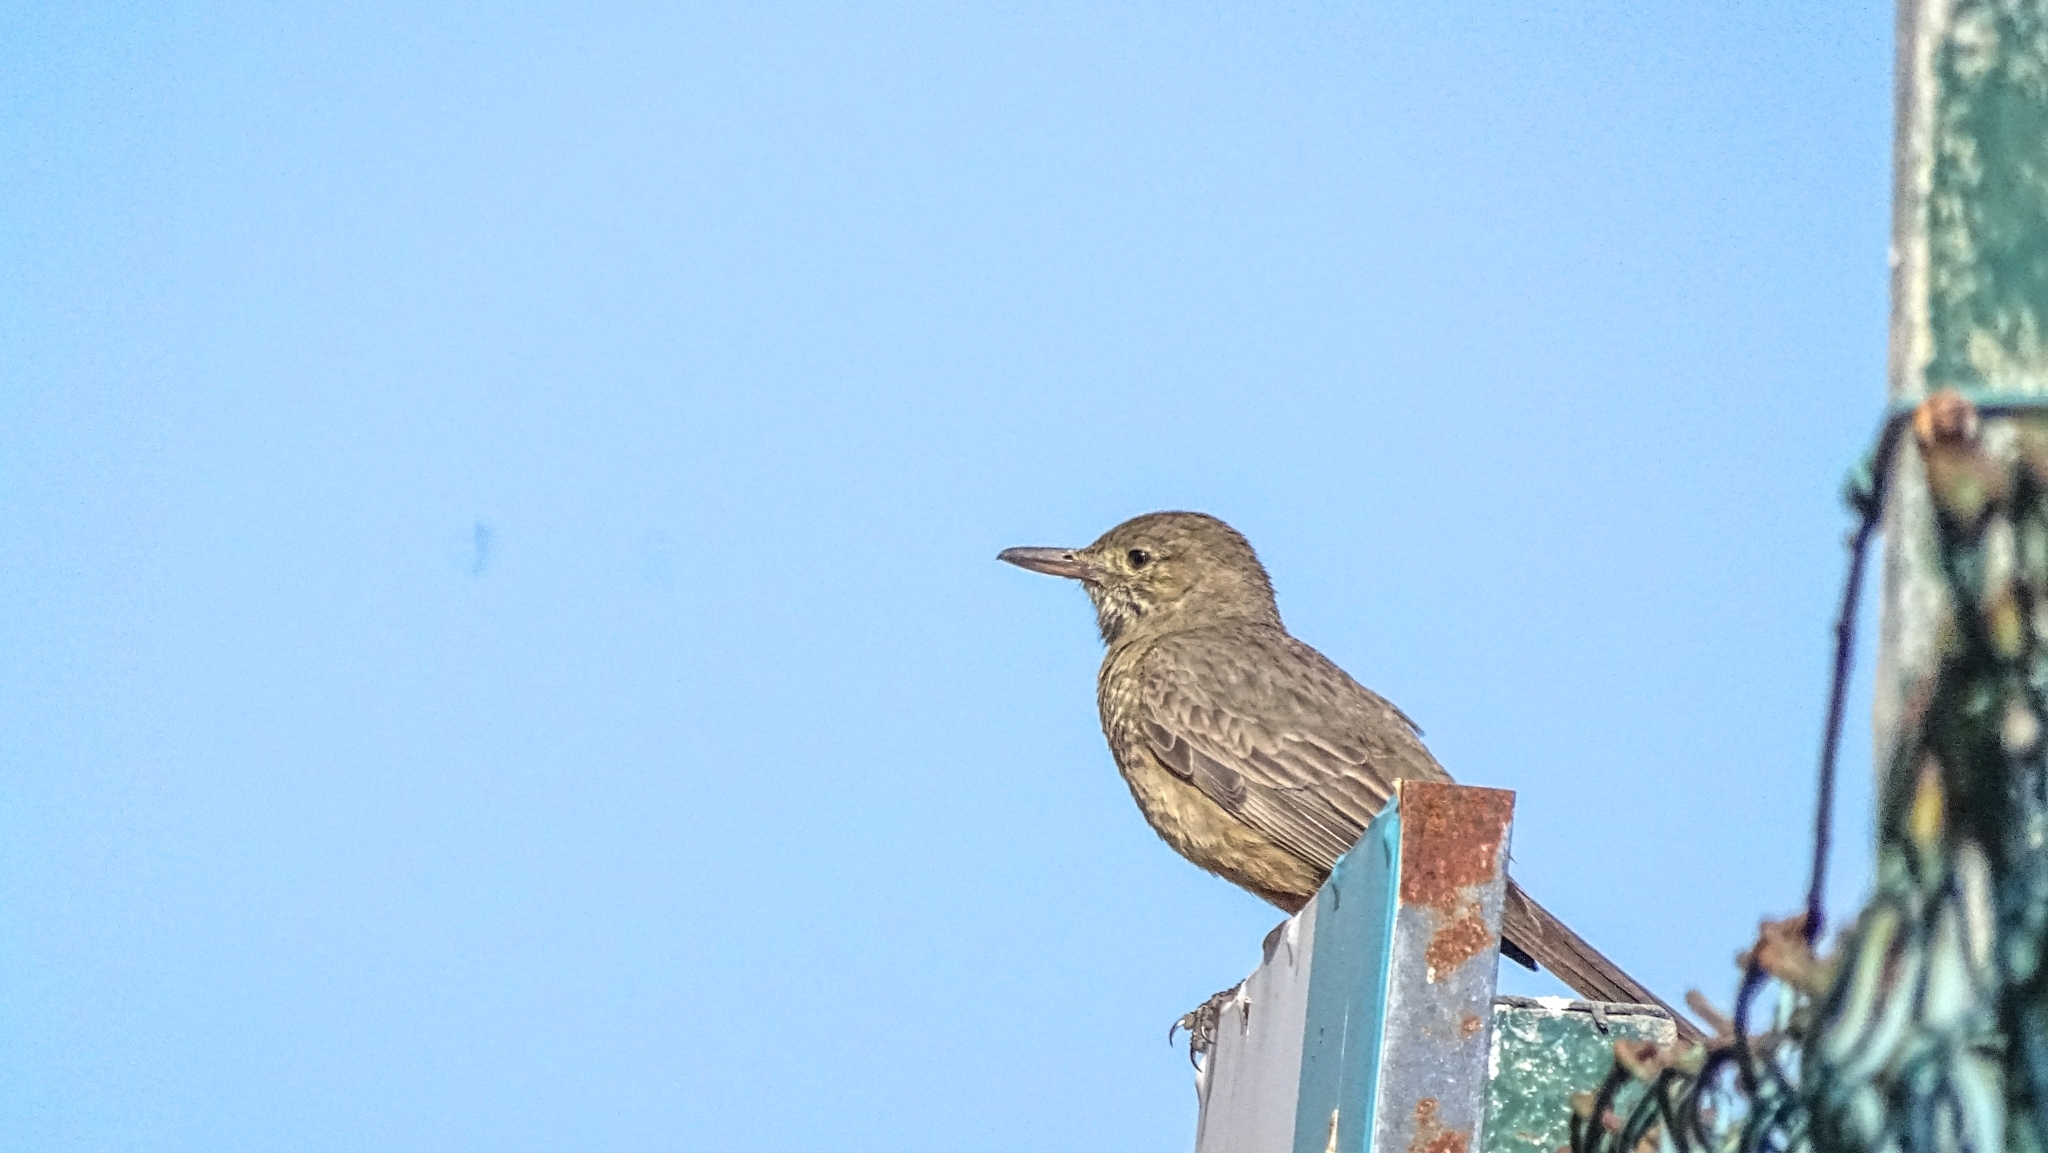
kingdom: Animalia
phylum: Chordata
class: Aves
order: Passeriformes
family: Tyrannidae
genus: Agriornis
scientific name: Agriornis lividus
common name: Great shrike-tyrant
